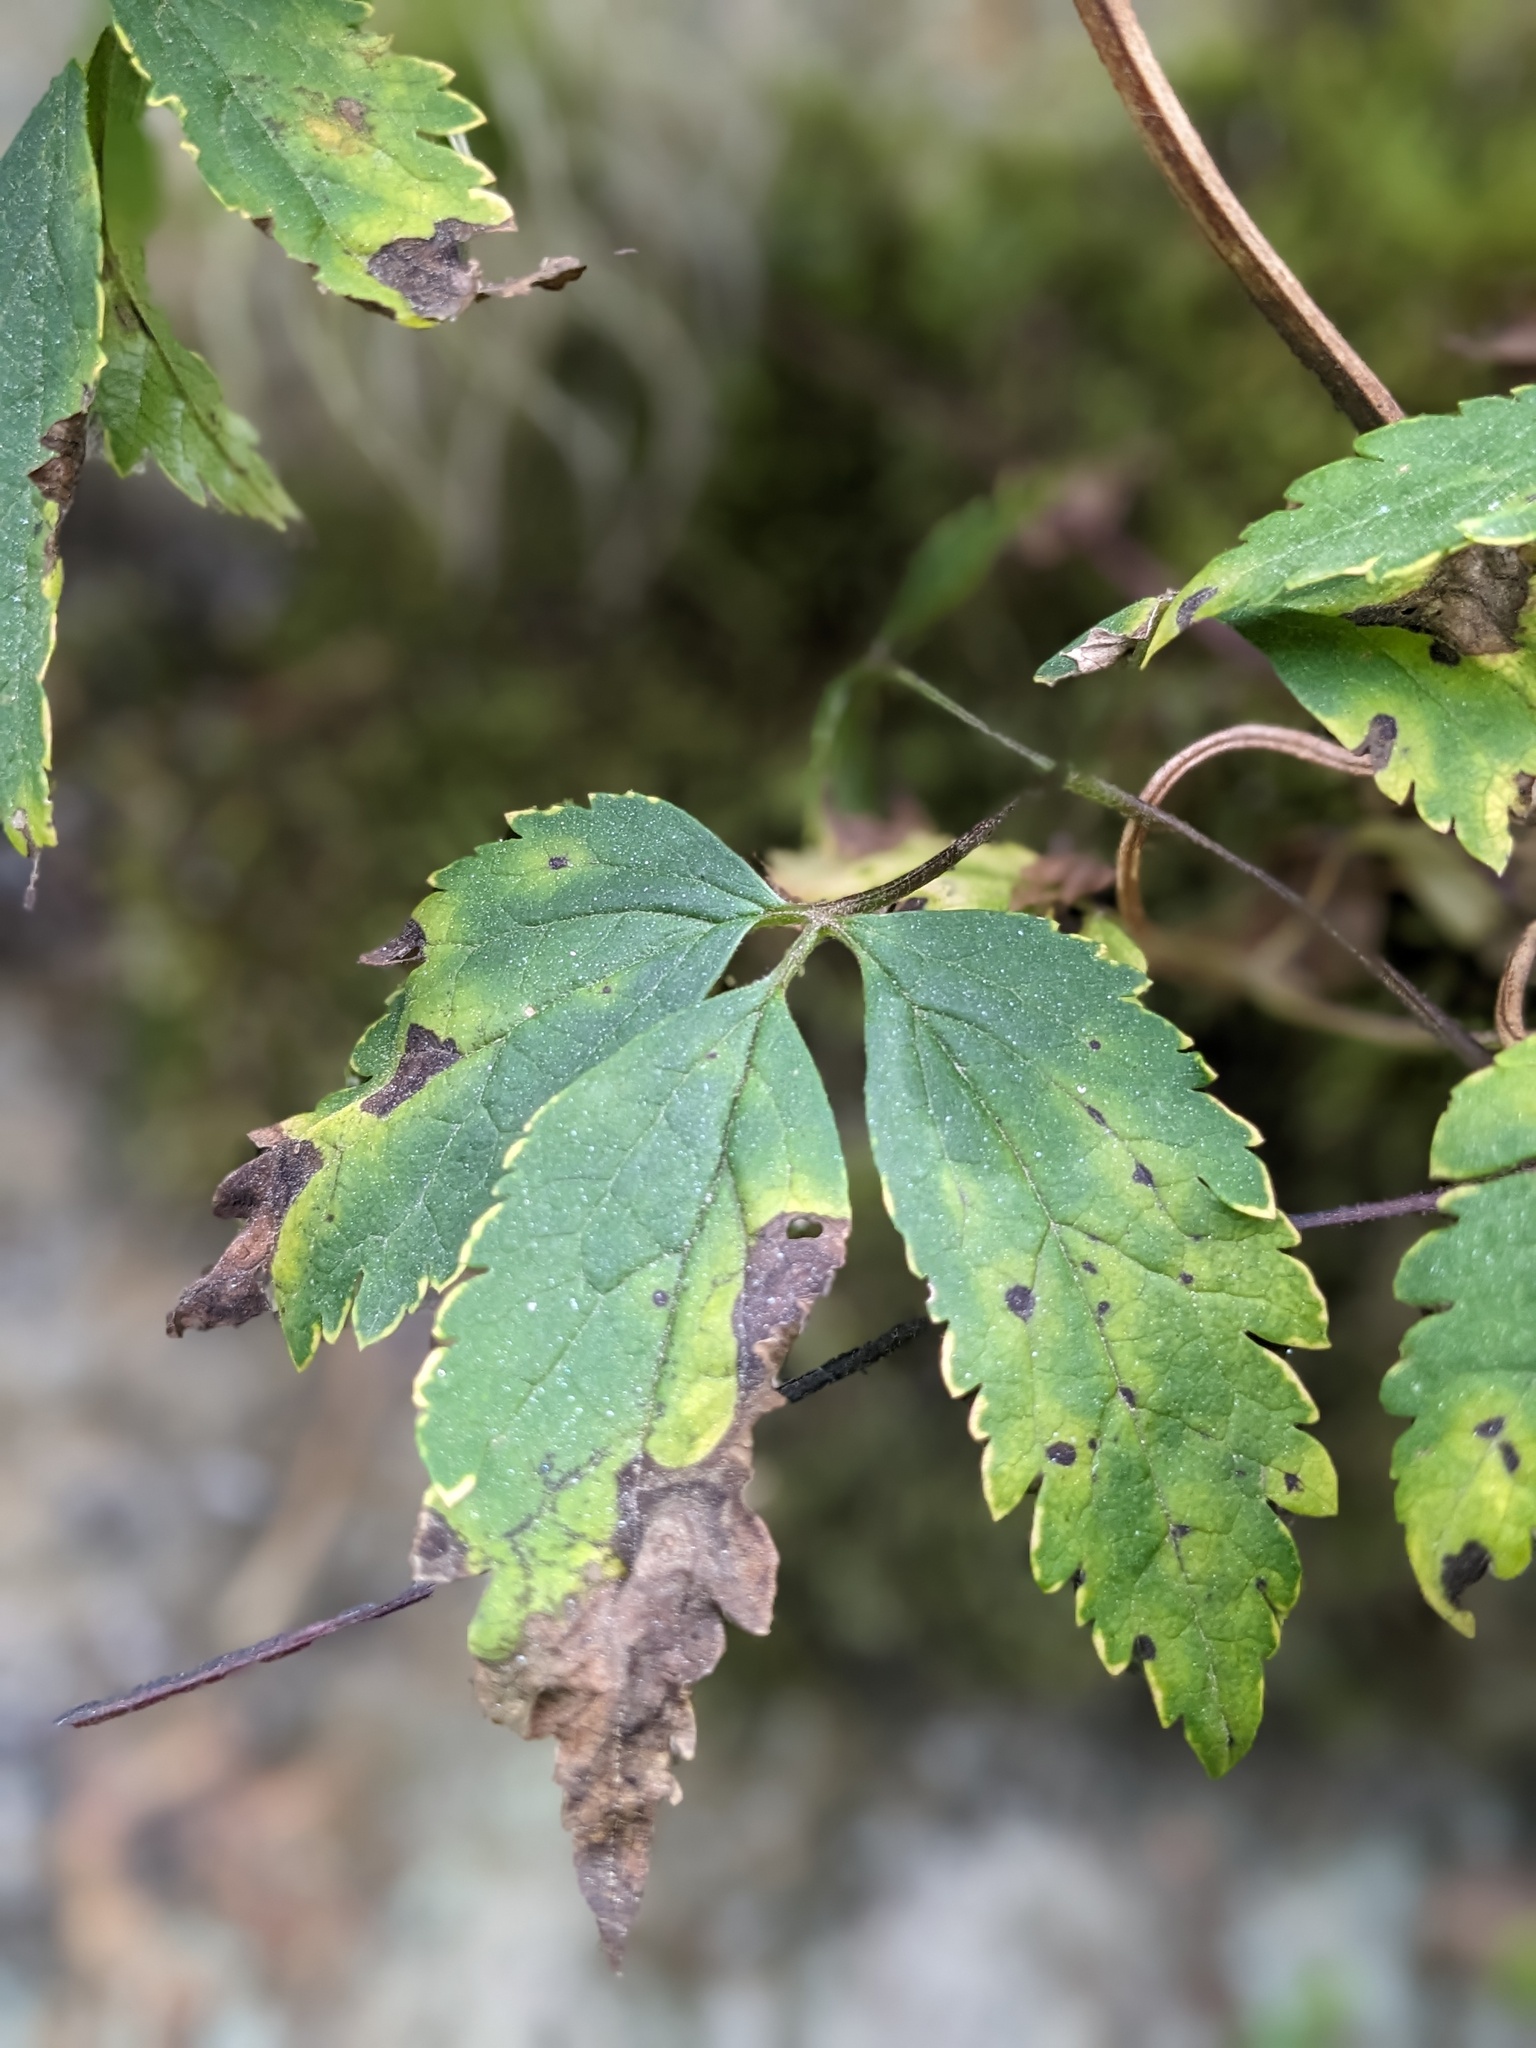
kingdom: Plantae
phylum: Tracheophyta
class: Magnoliopsida
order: Ranunculales
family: Ranunculaceae
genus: Pulsatilla
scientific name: Pulsatilla alpina
